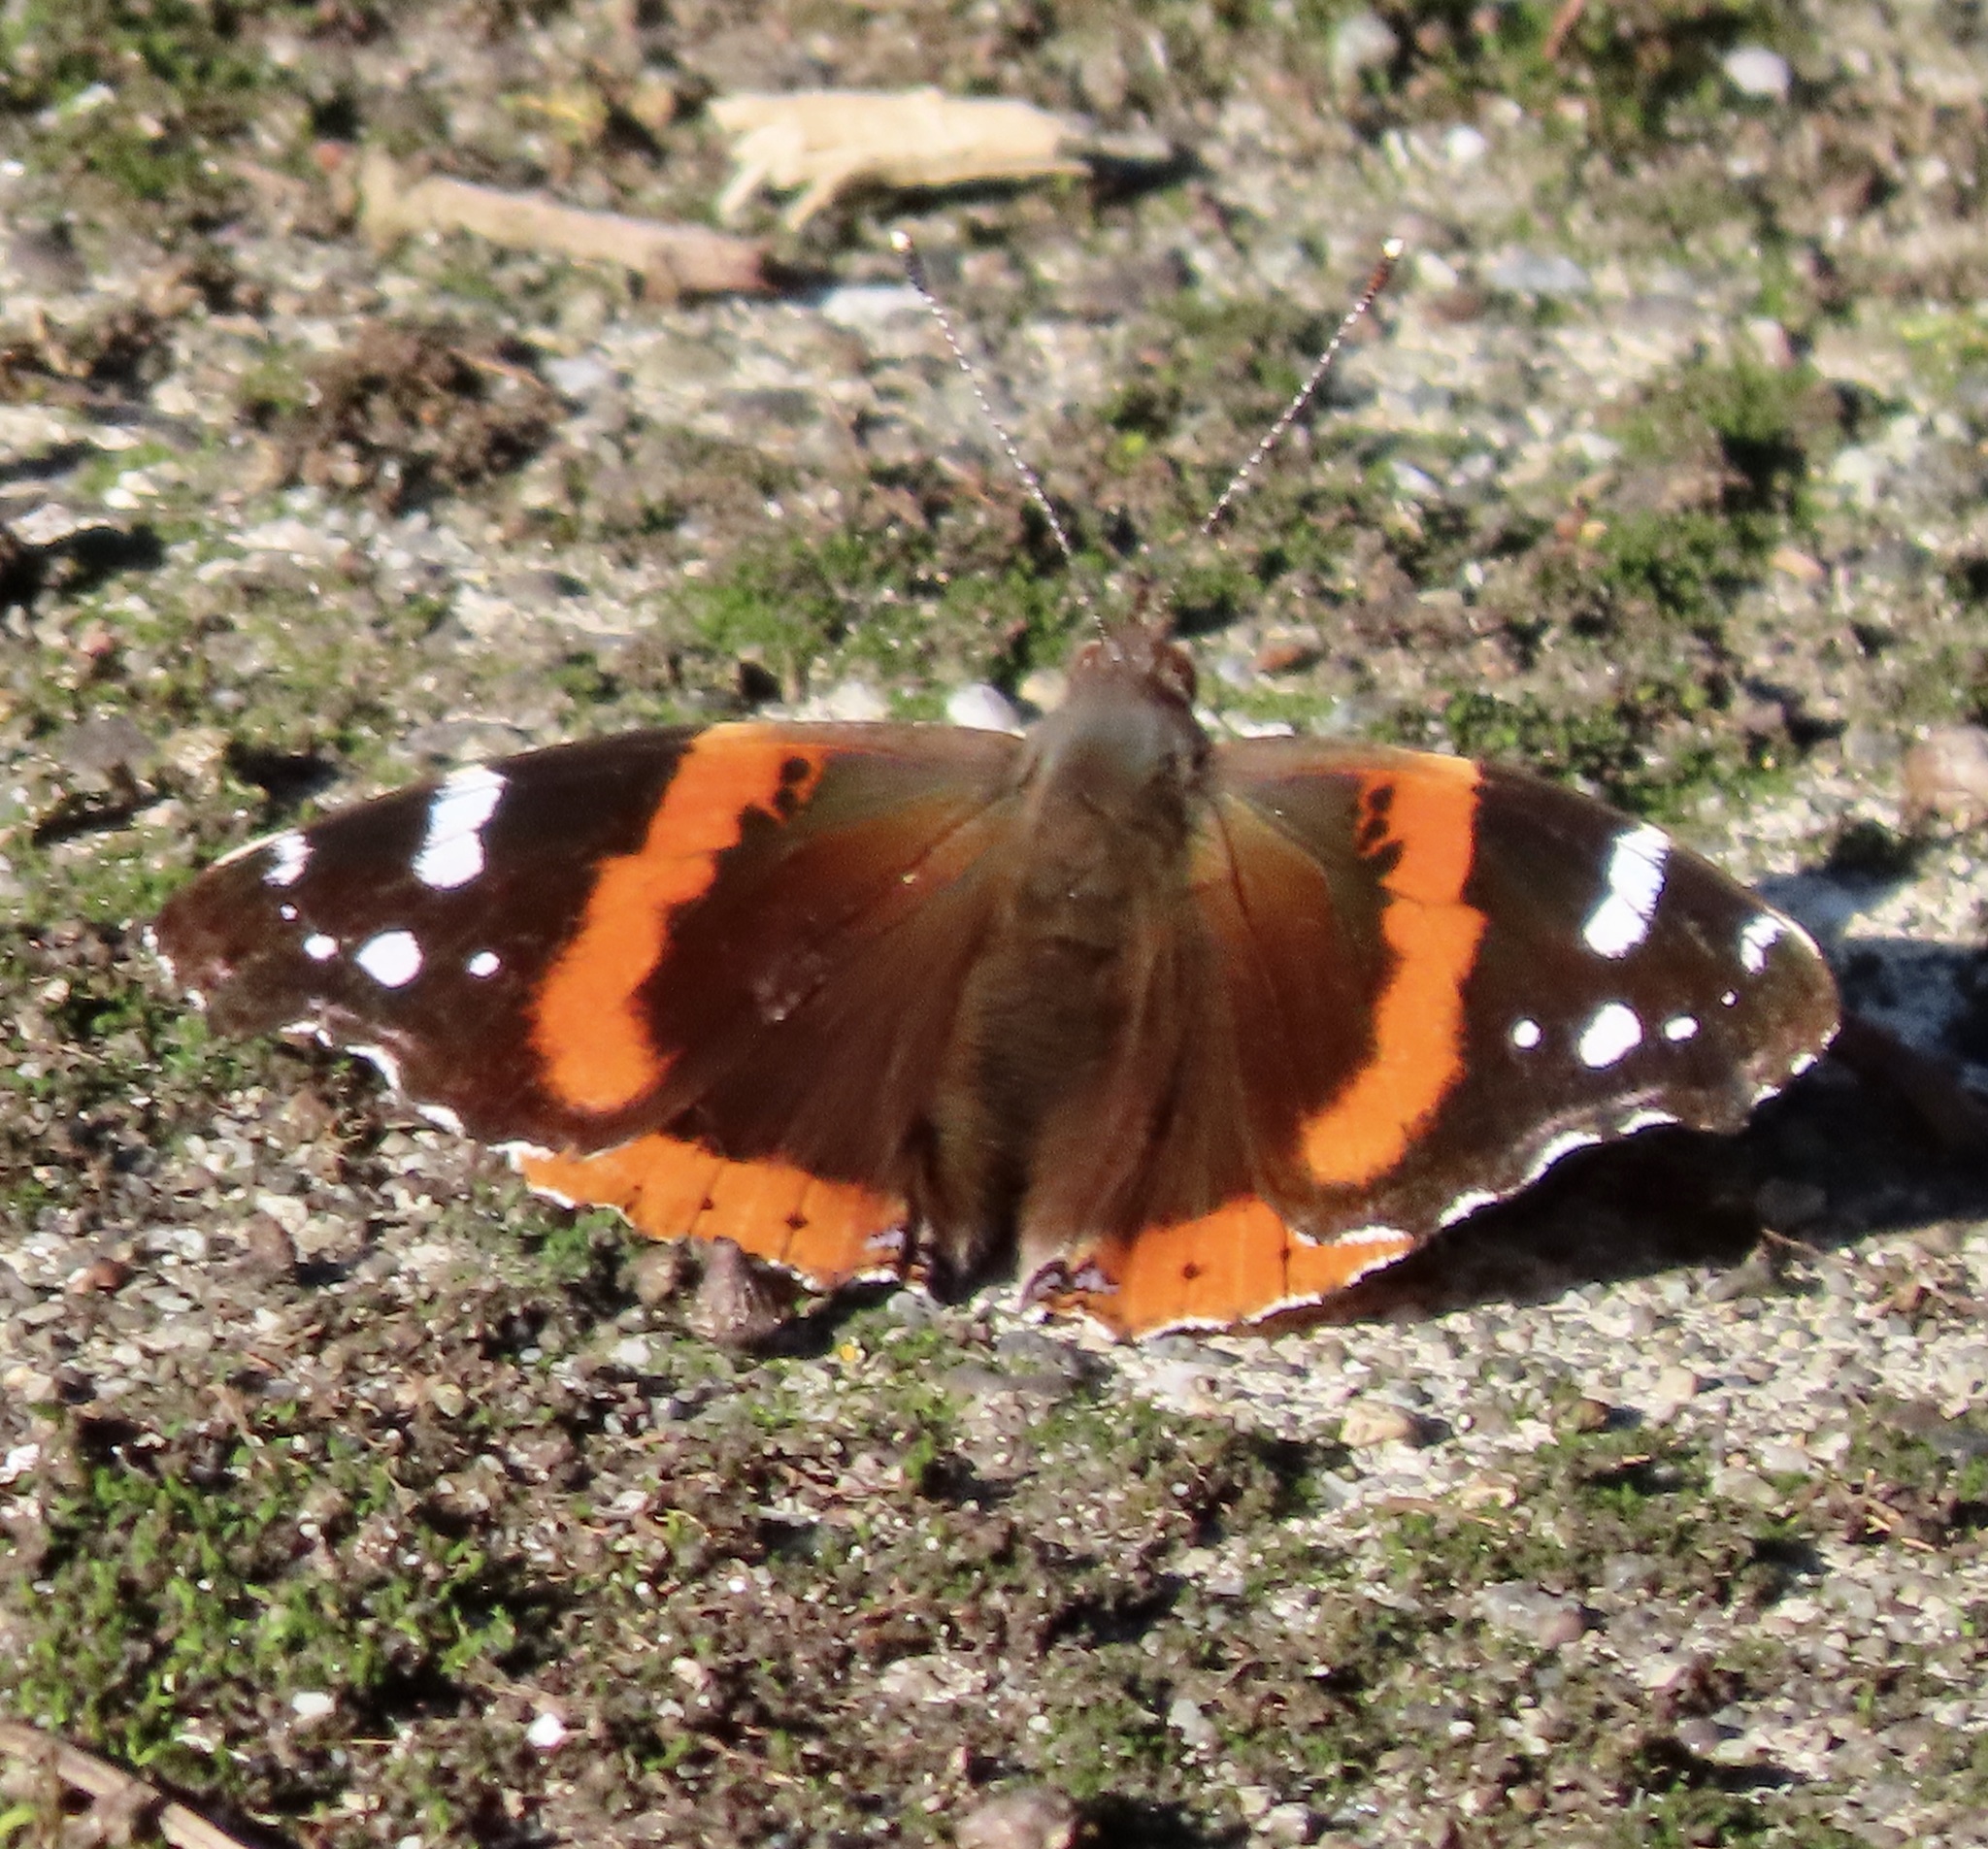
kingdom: Animalia
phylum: Arthropoda
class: Insecta
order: Lepidoptera
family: Nymphalidae
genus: Vanessa
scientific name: Vanessa atalanta
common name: Red admiral
